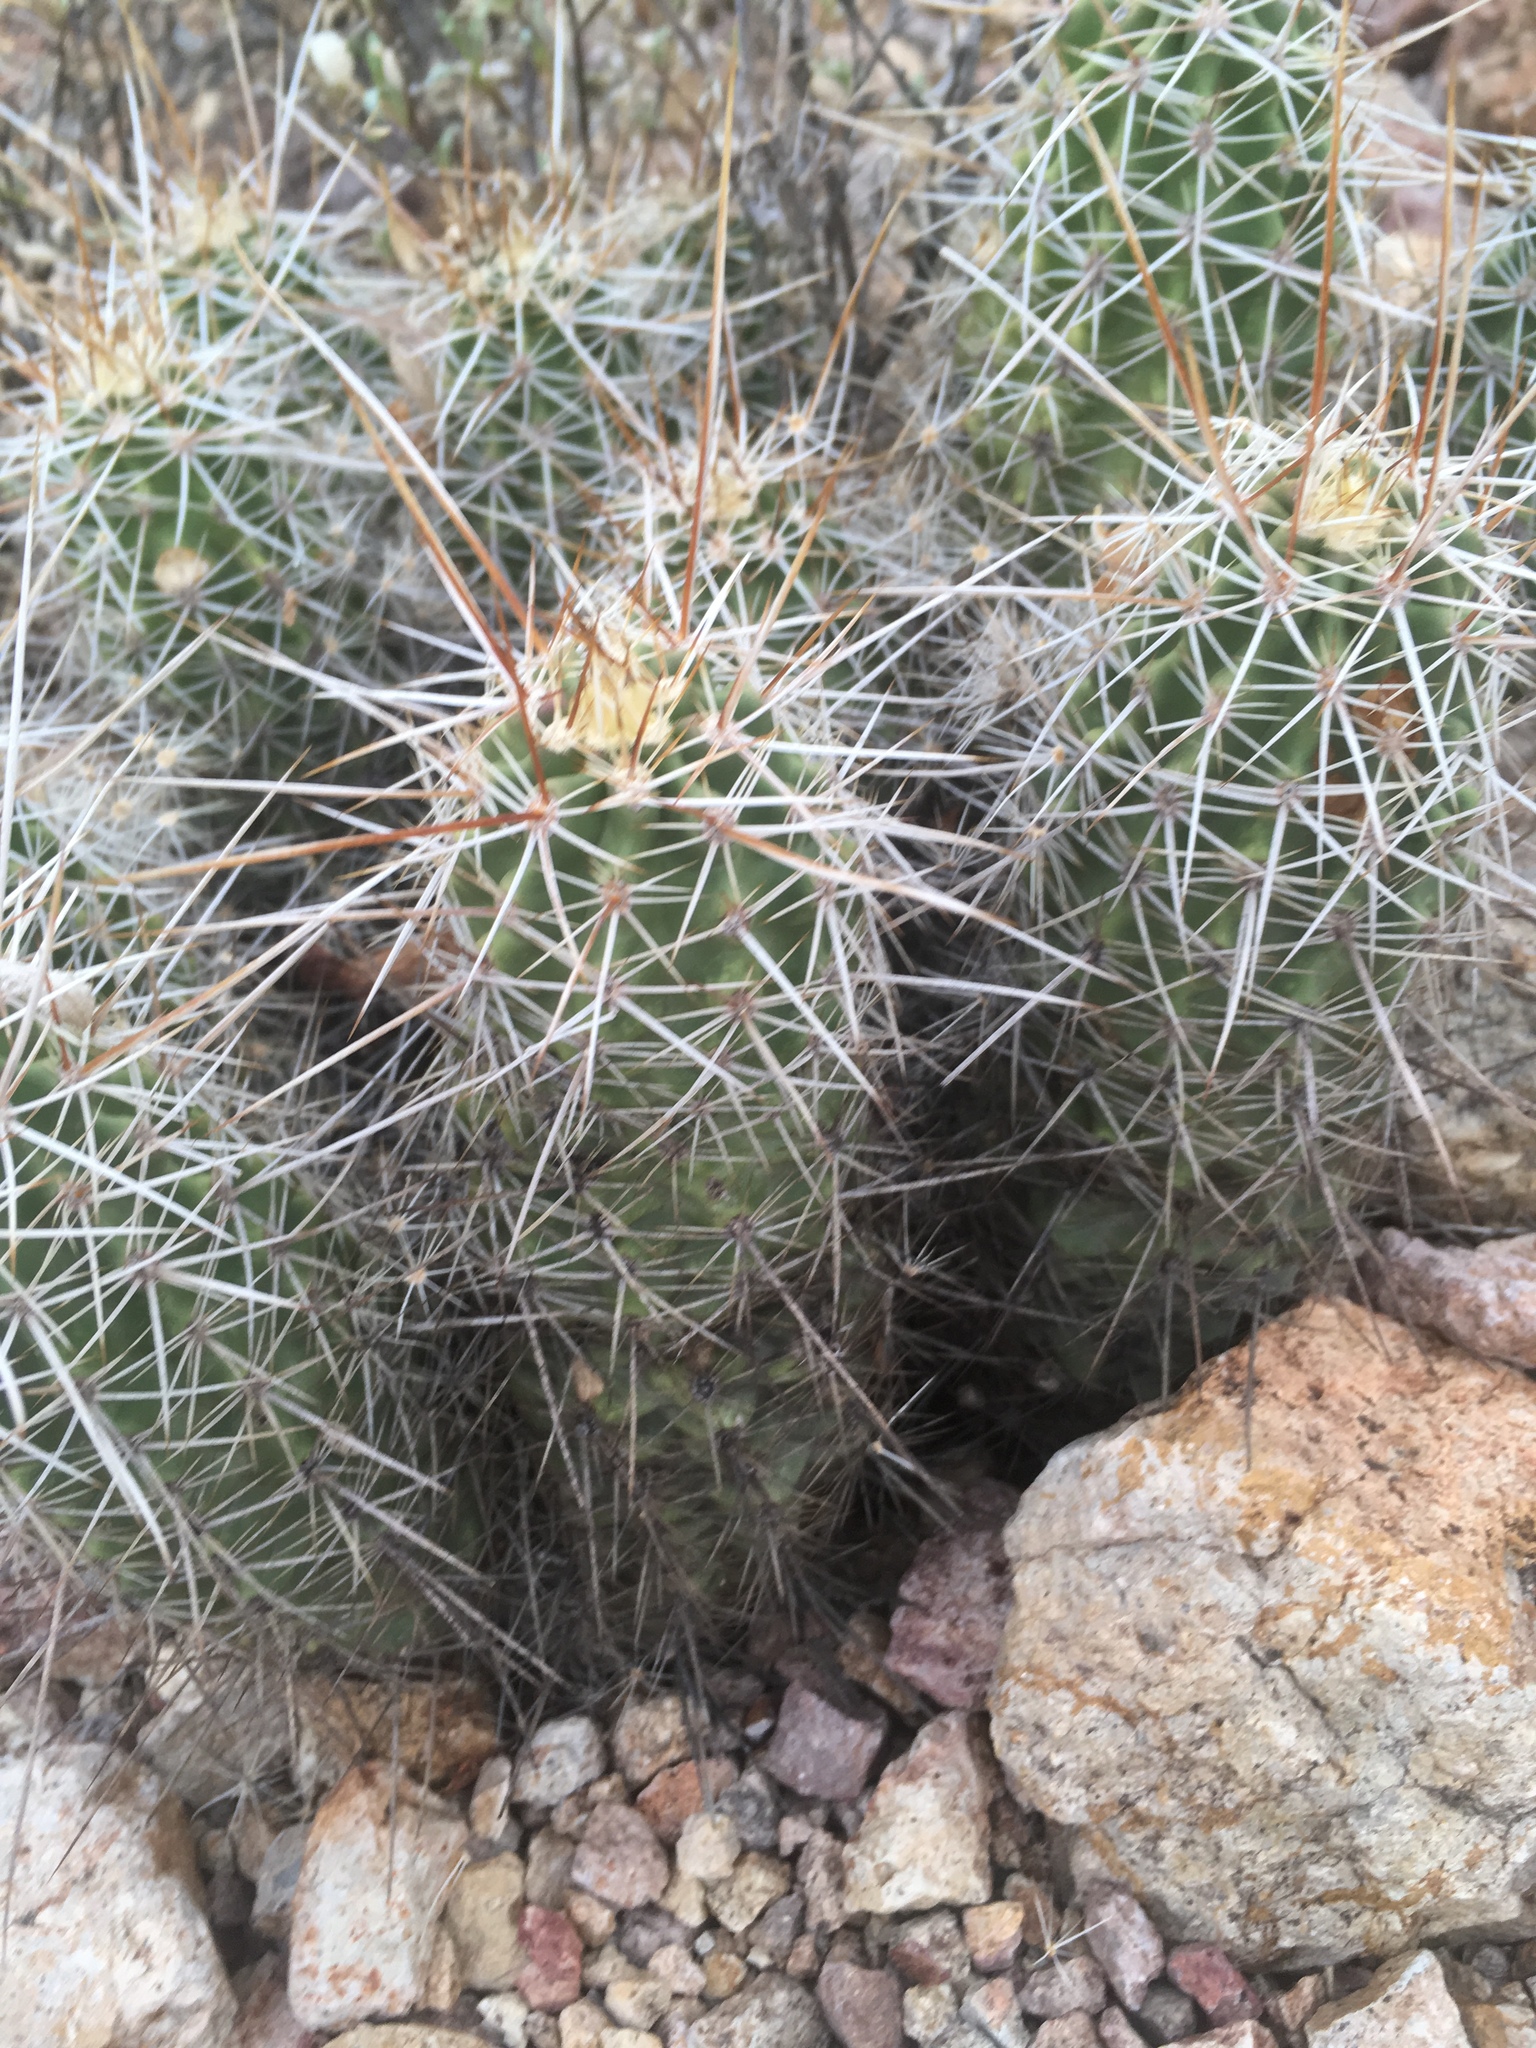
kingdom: Plantae
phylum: Tracheophyta
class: Magnoliopsida
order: Caryophyllales
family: Cactaceae
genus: Echinocereus
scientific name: Echinocereus fasciculatus
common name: Bundle hedgehog
